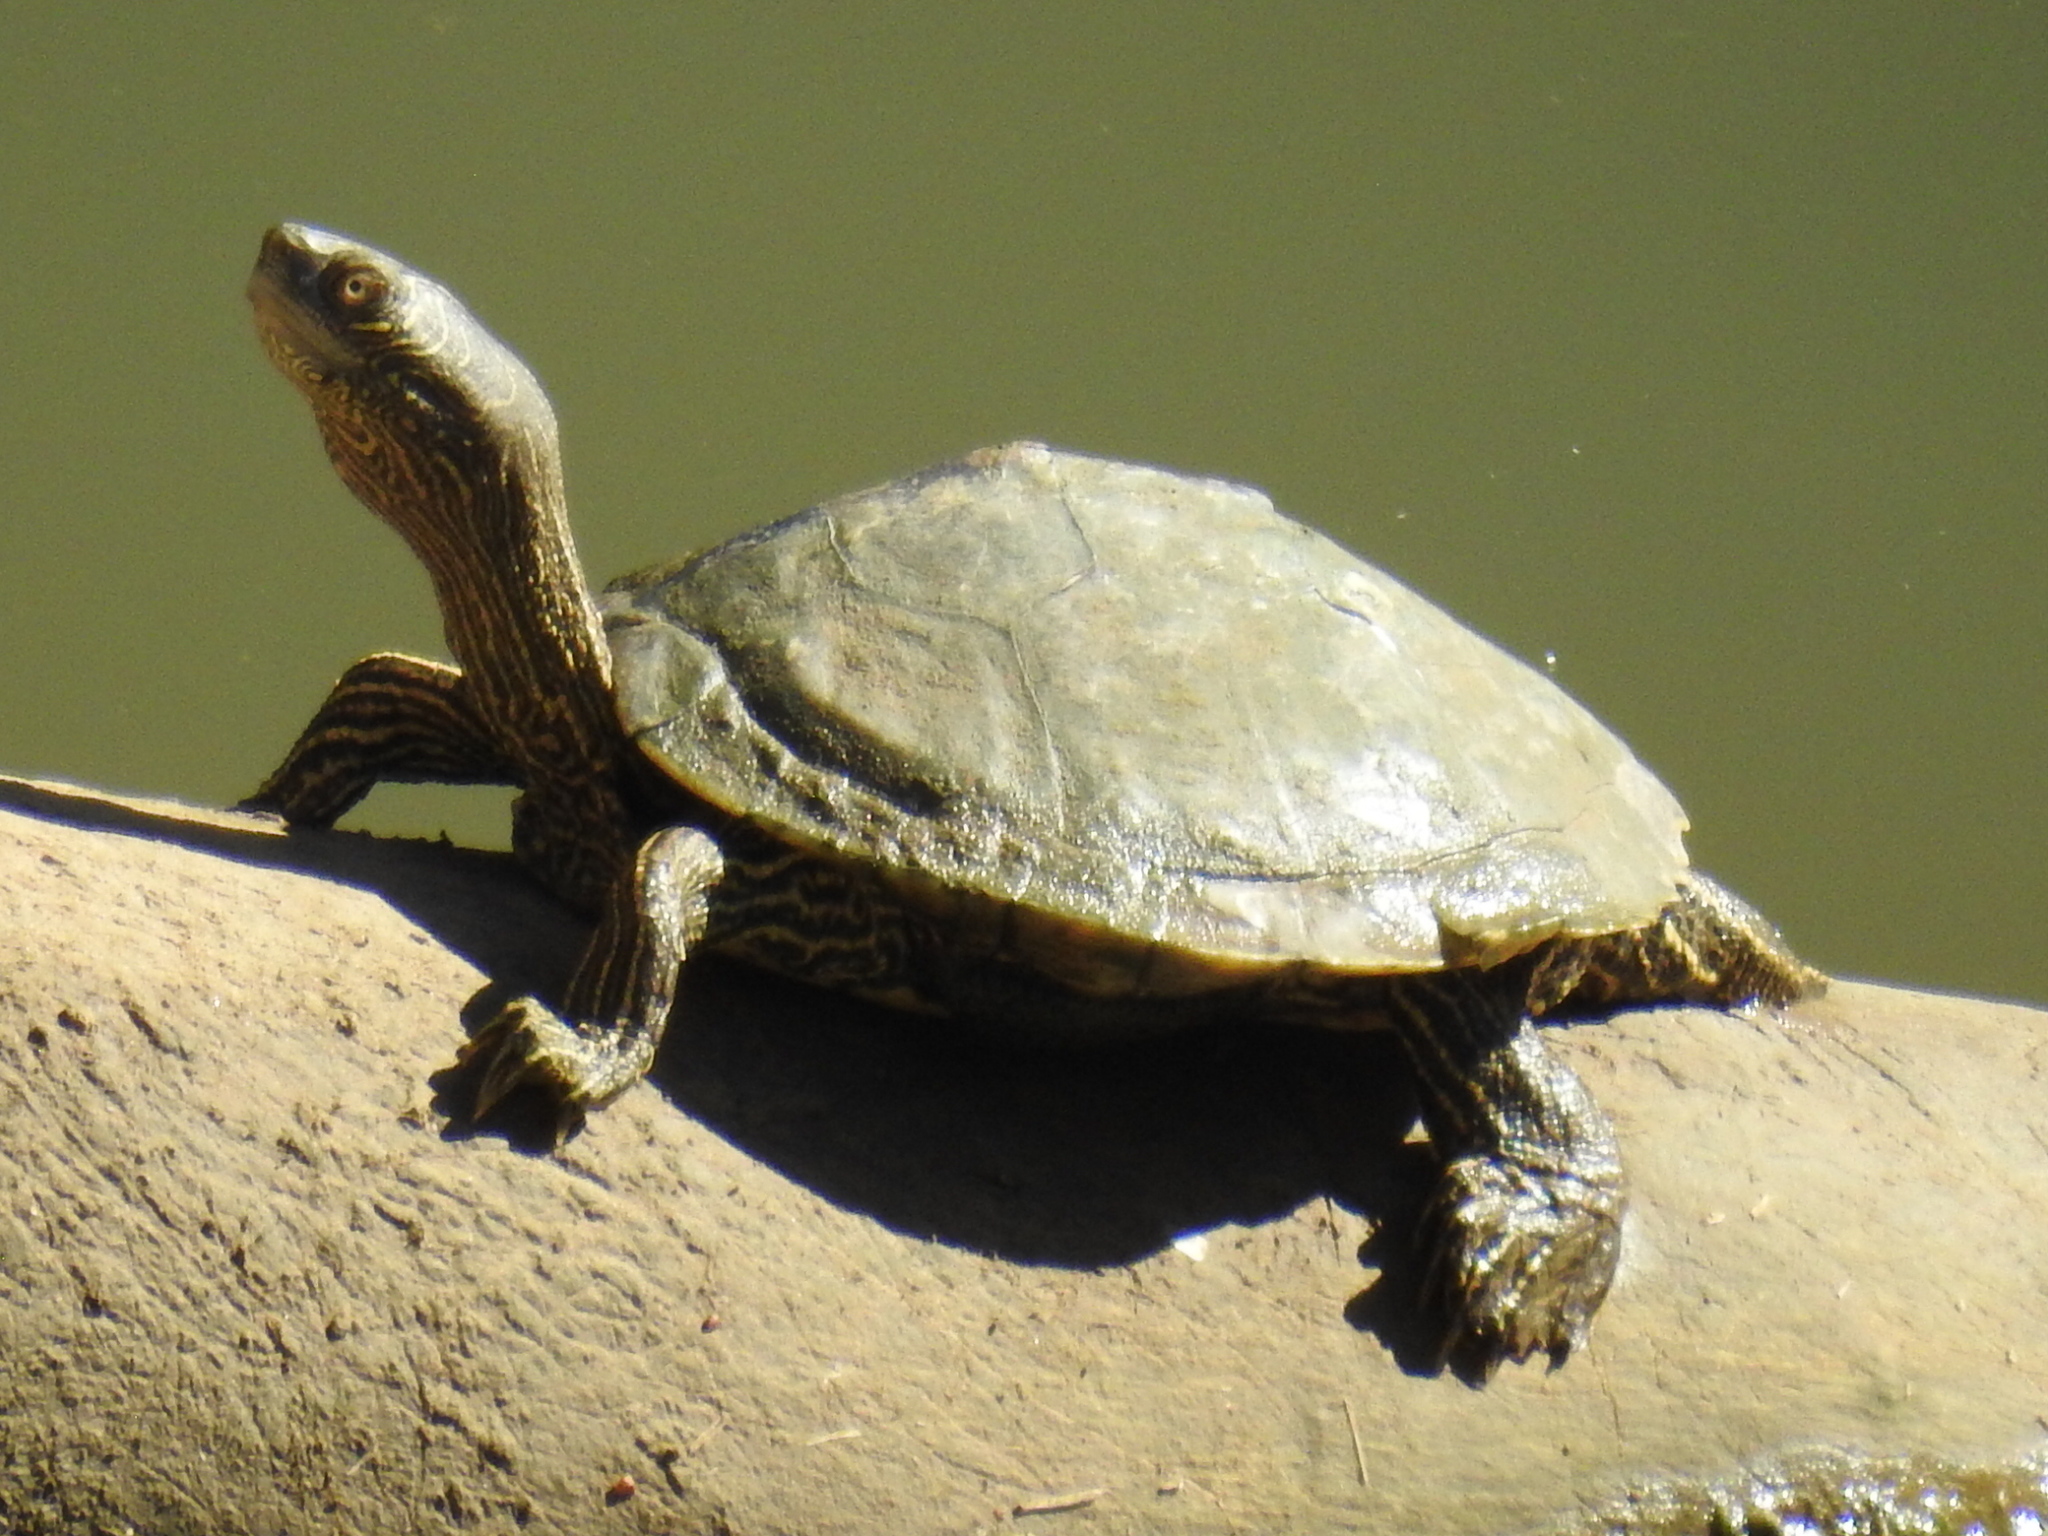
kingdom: Animalia
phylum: Chordata
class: Testudines
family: Emydidae
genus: Graptemys
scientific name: Graptemys pseudogeographica
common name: False map turtle
